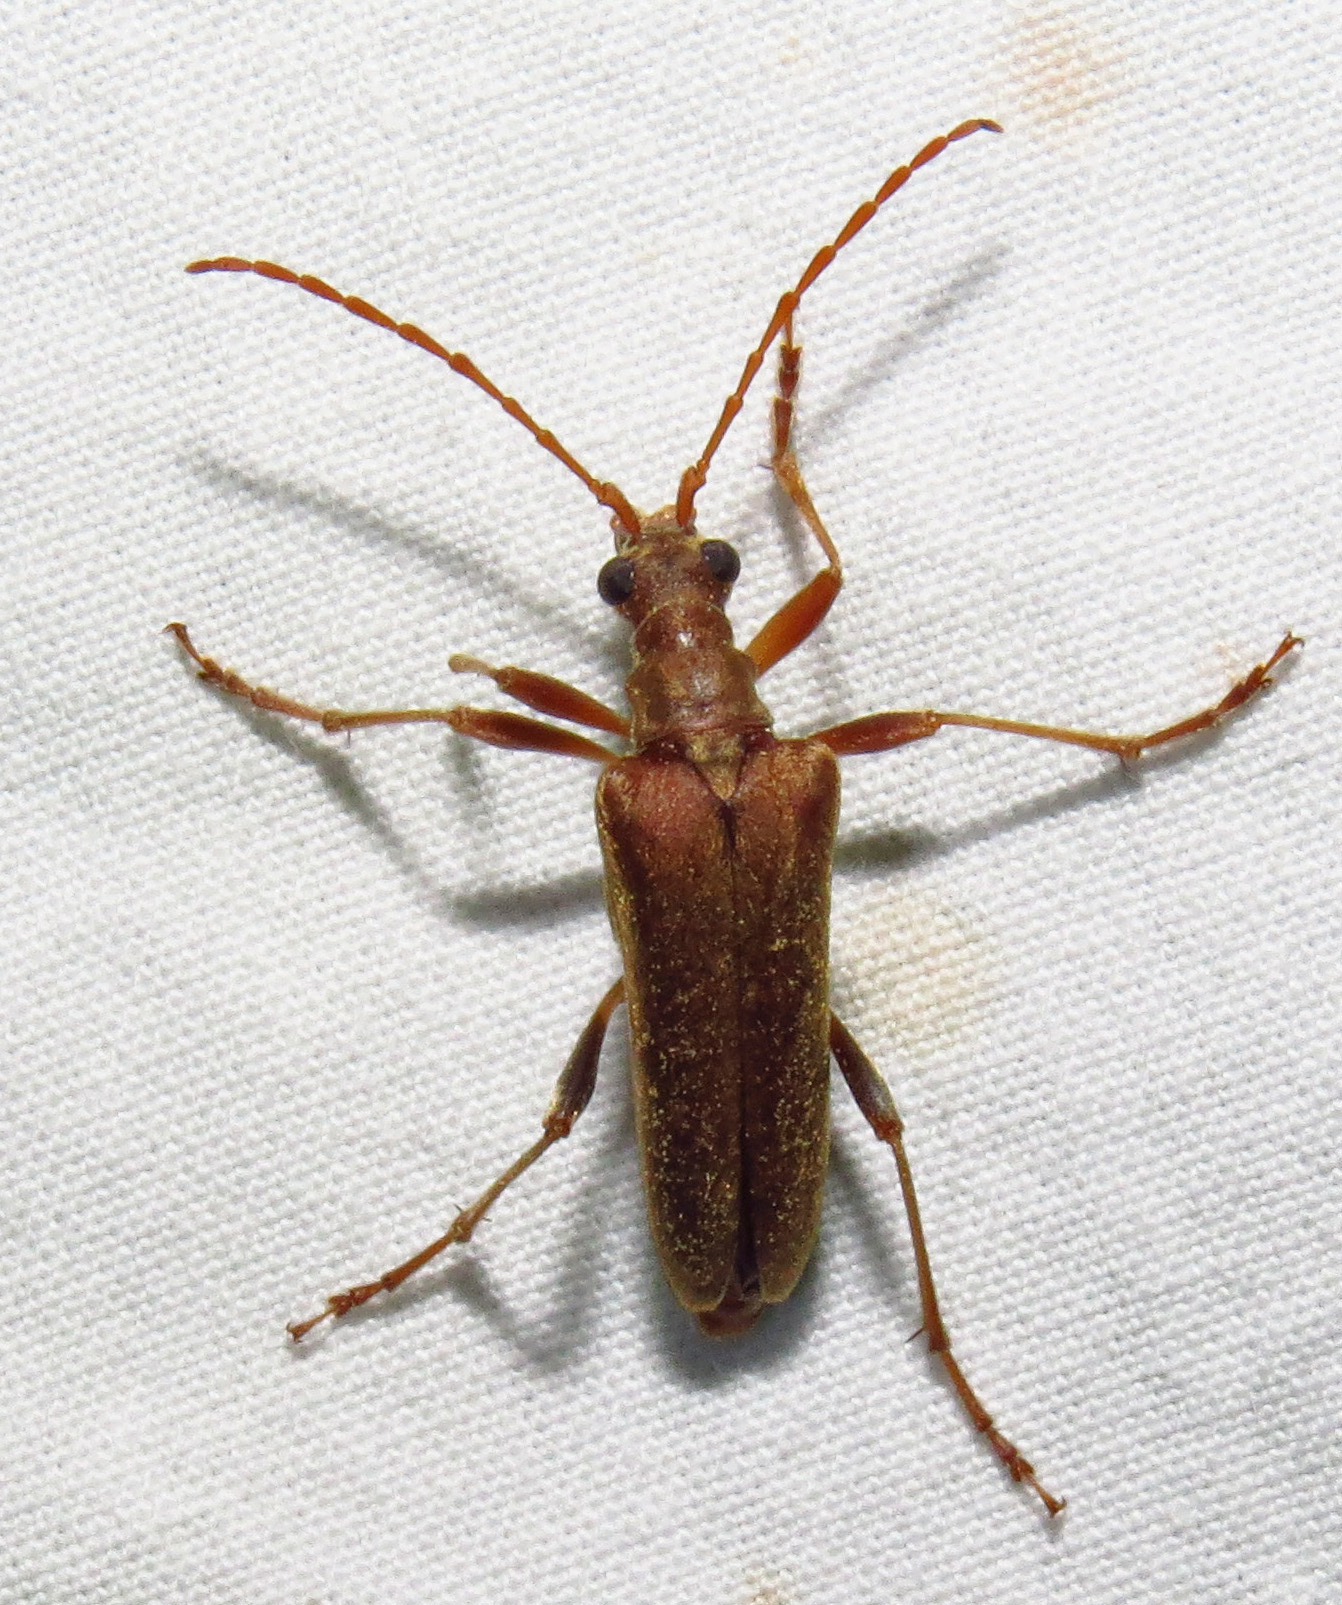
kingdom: Animalia
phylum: Arthropoda
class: Insecta
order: Coleoptera
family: Cerambycidae
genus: Stenocorus
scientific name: Stenocorus cinnamopterus
